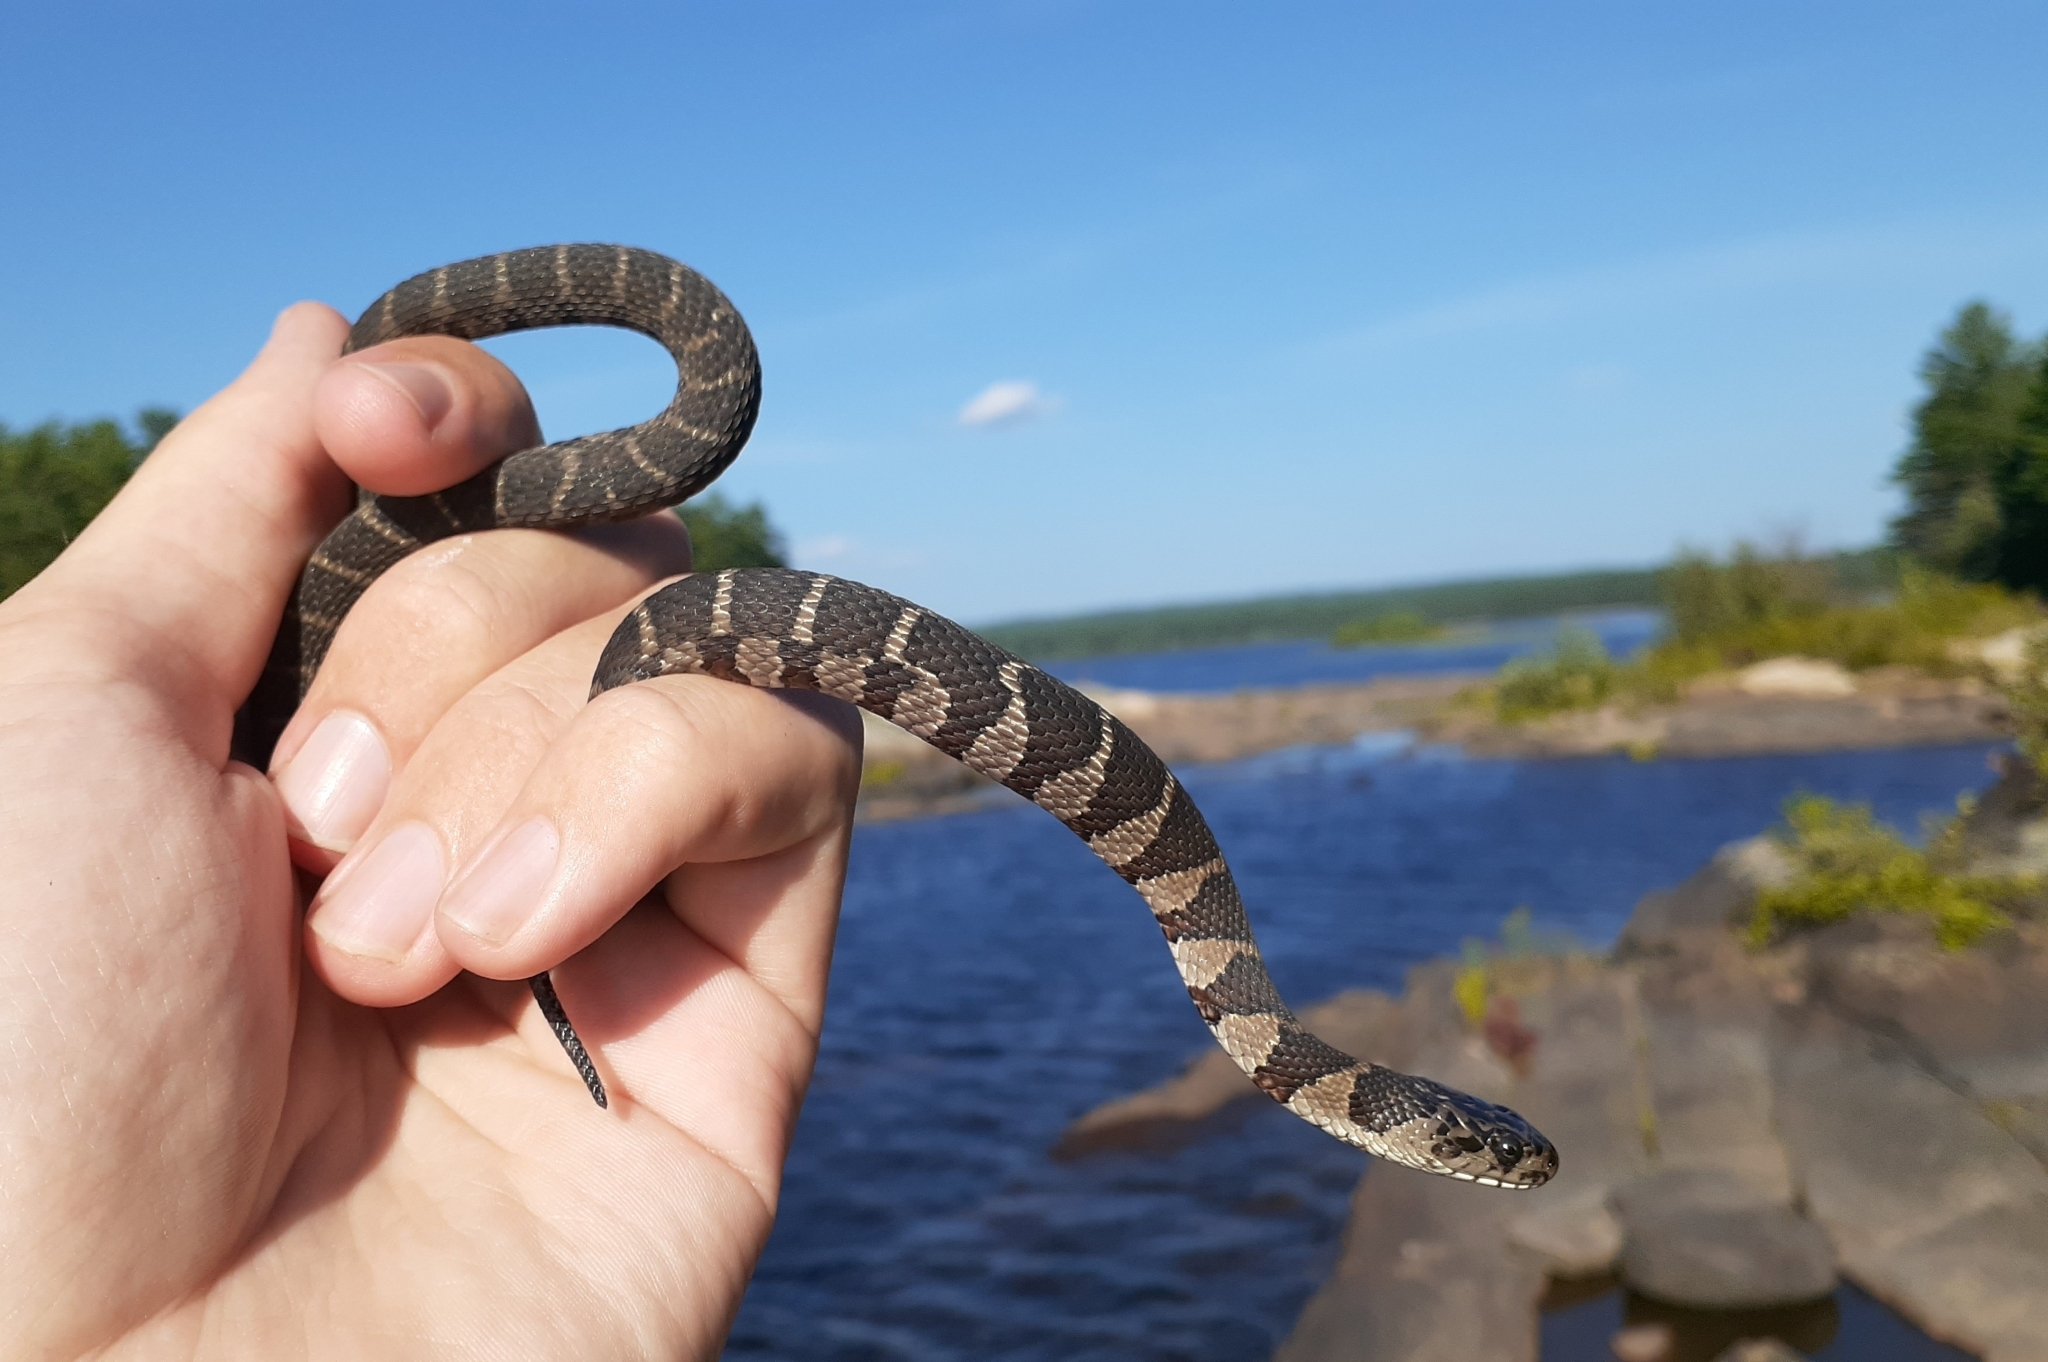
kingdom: Animalia
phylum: Chordata
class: Squamata
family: Colubridae
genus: Nerodia
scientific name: Nerodia sipedon
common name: Northern water snake
